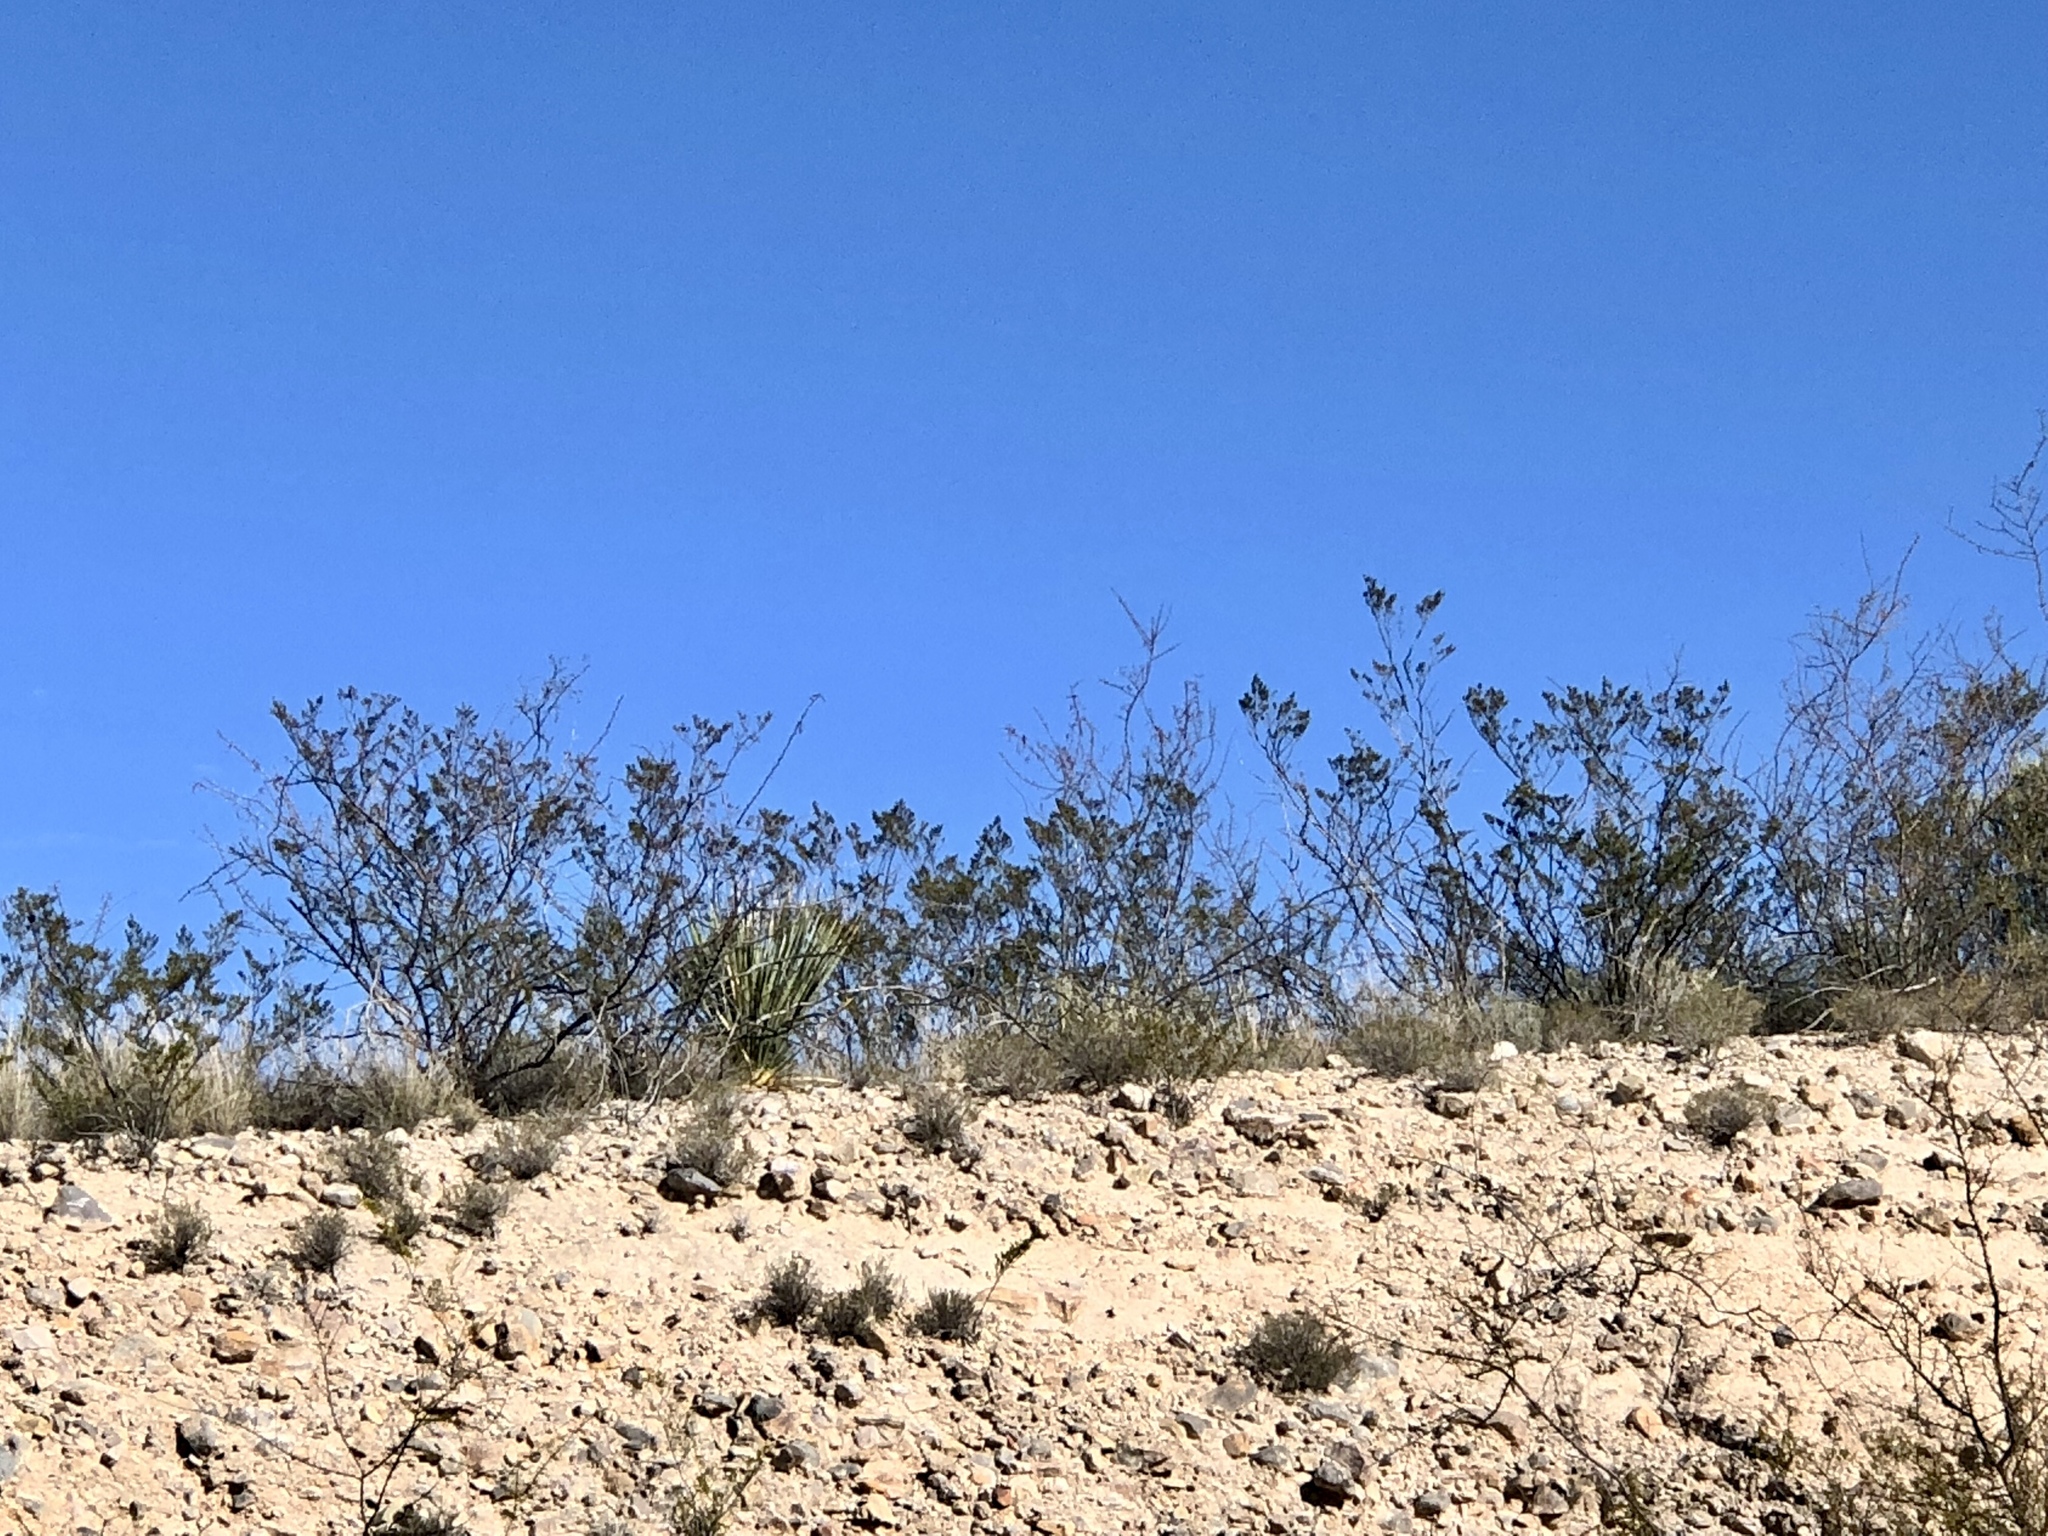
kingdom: Plantae
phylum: Tracheophyta
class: Magnoliopsida
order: Zygophyllales
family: Zygophyllaceae
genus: Larrea
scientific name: Larrea tridentata
